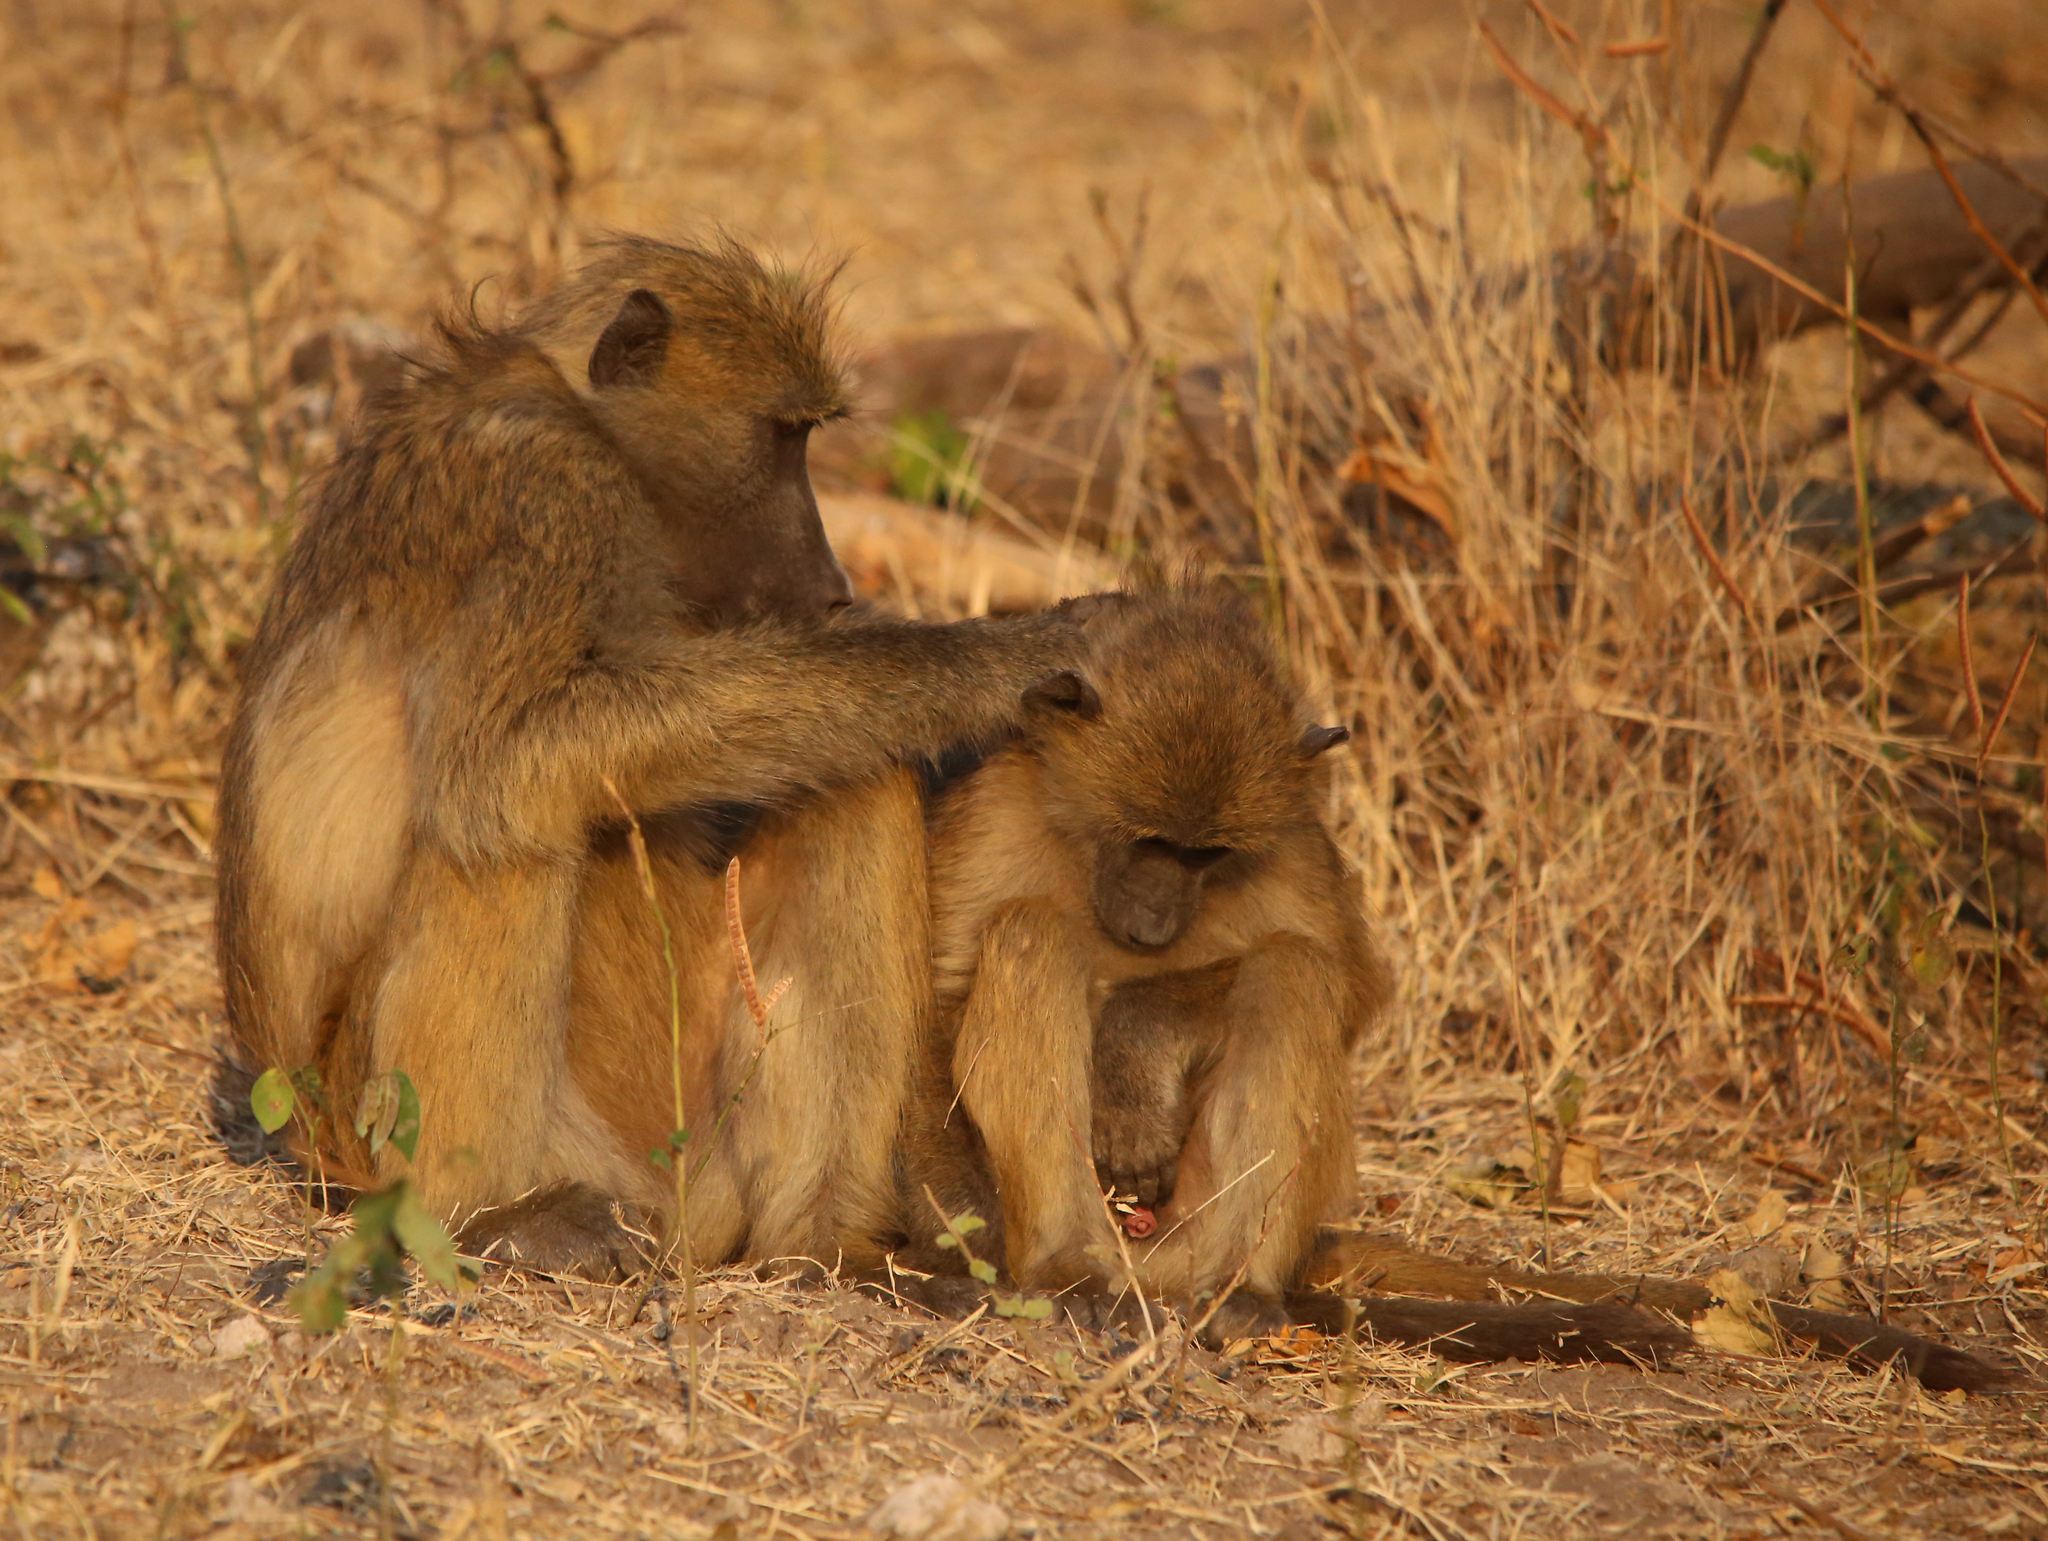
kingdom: Animalia
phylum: Chordata
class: Mammalia
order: Primates
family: Cercopithecidae
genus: Papio
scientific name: Papio ursinus
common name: Chacma baboon
